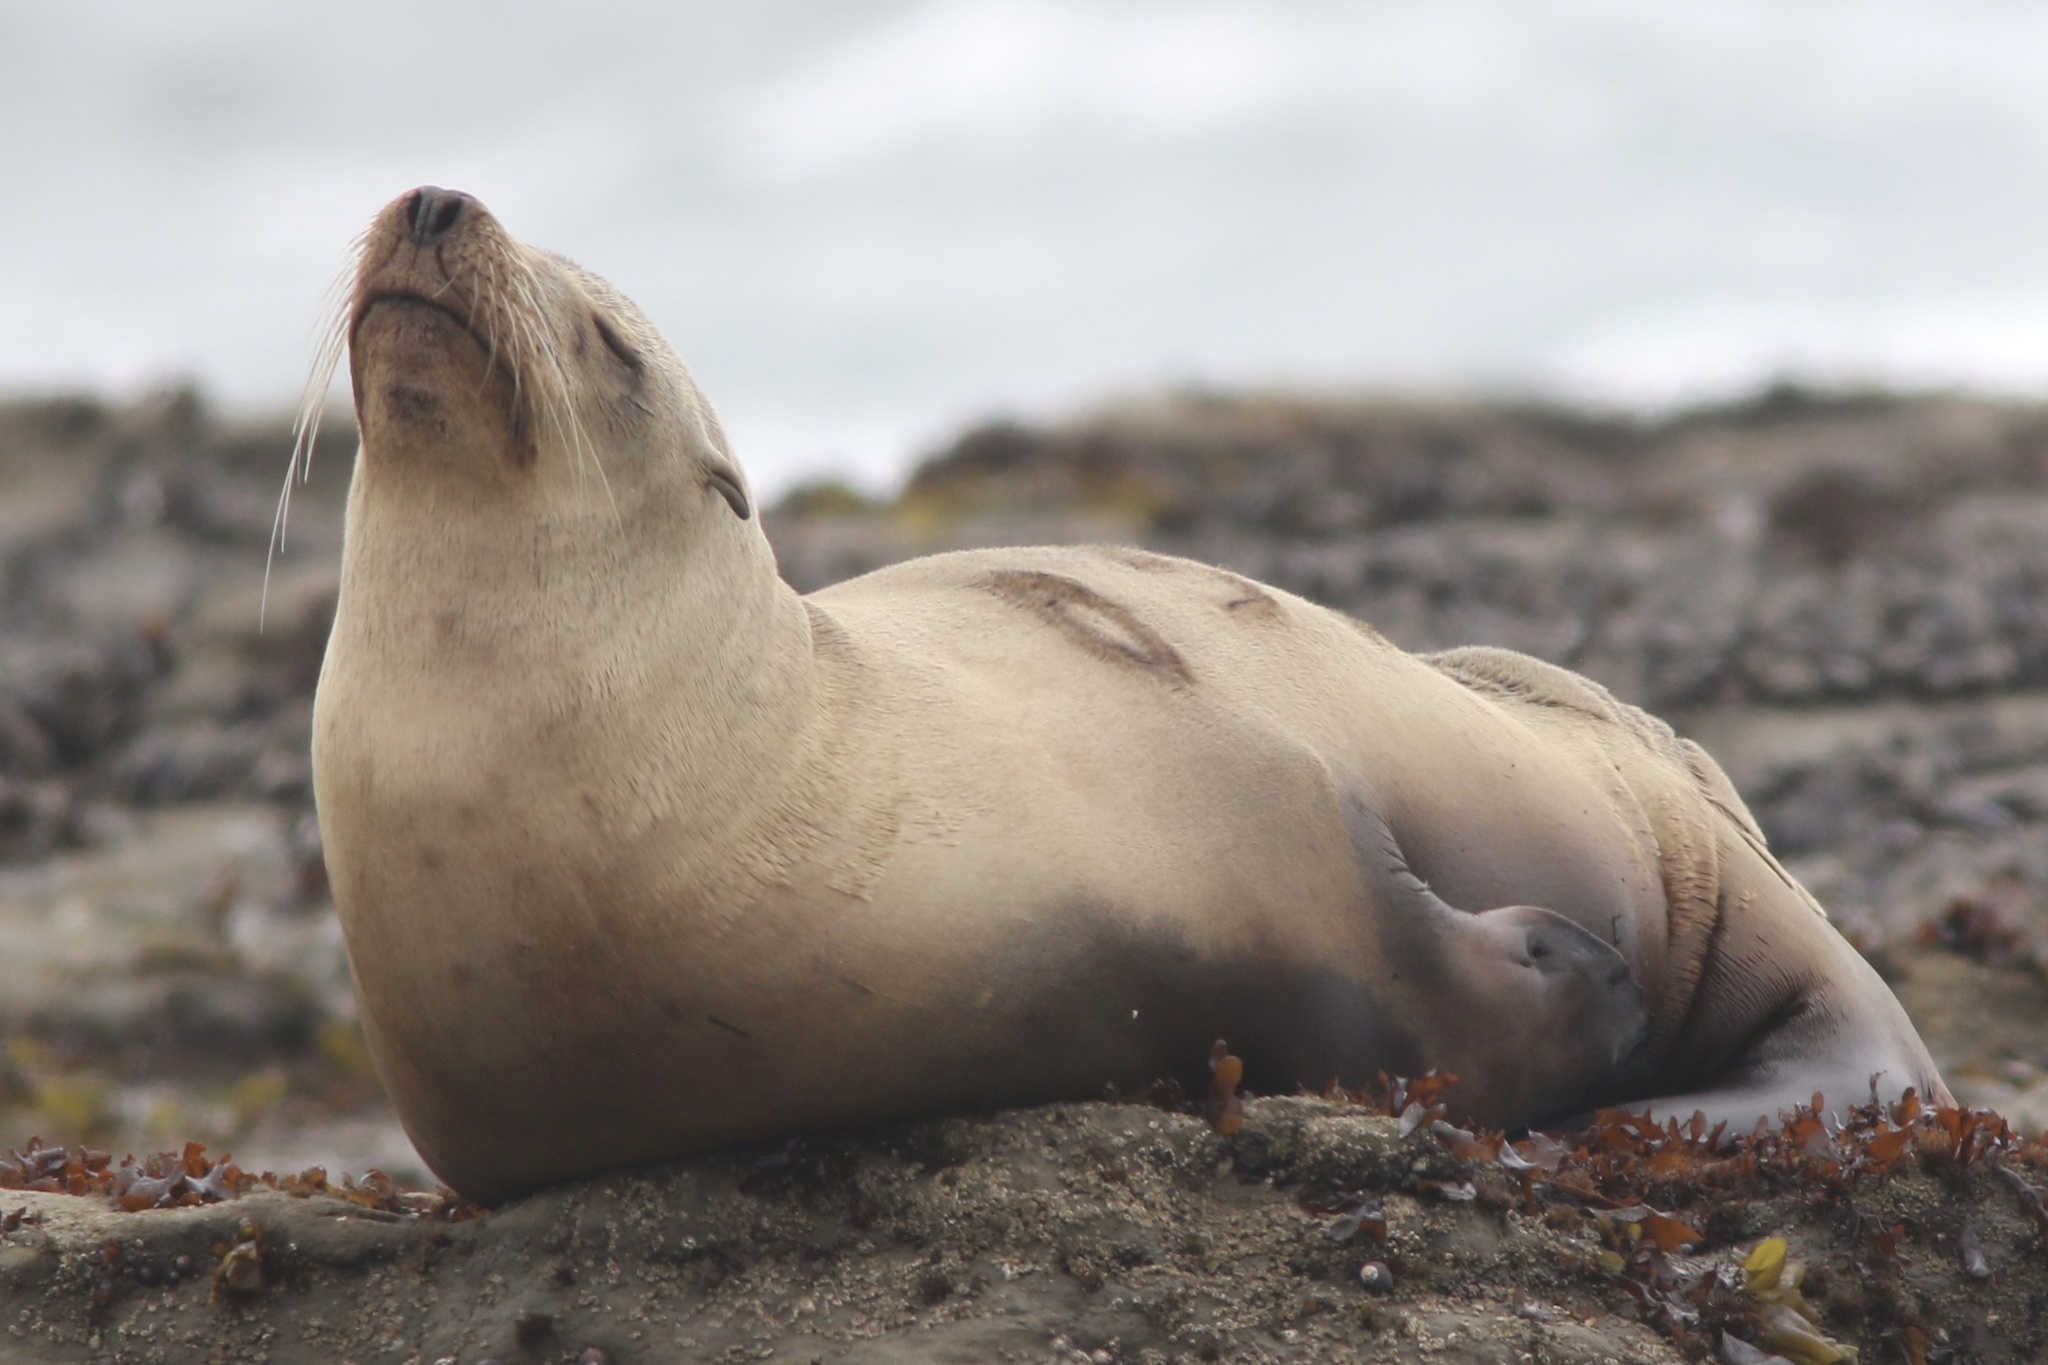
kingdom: Animalia
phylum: Chordata
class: Mammalia
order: Carnivora
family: Otariidae
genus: Zalophus
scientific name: Zalophus californianus
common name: California sea lion
